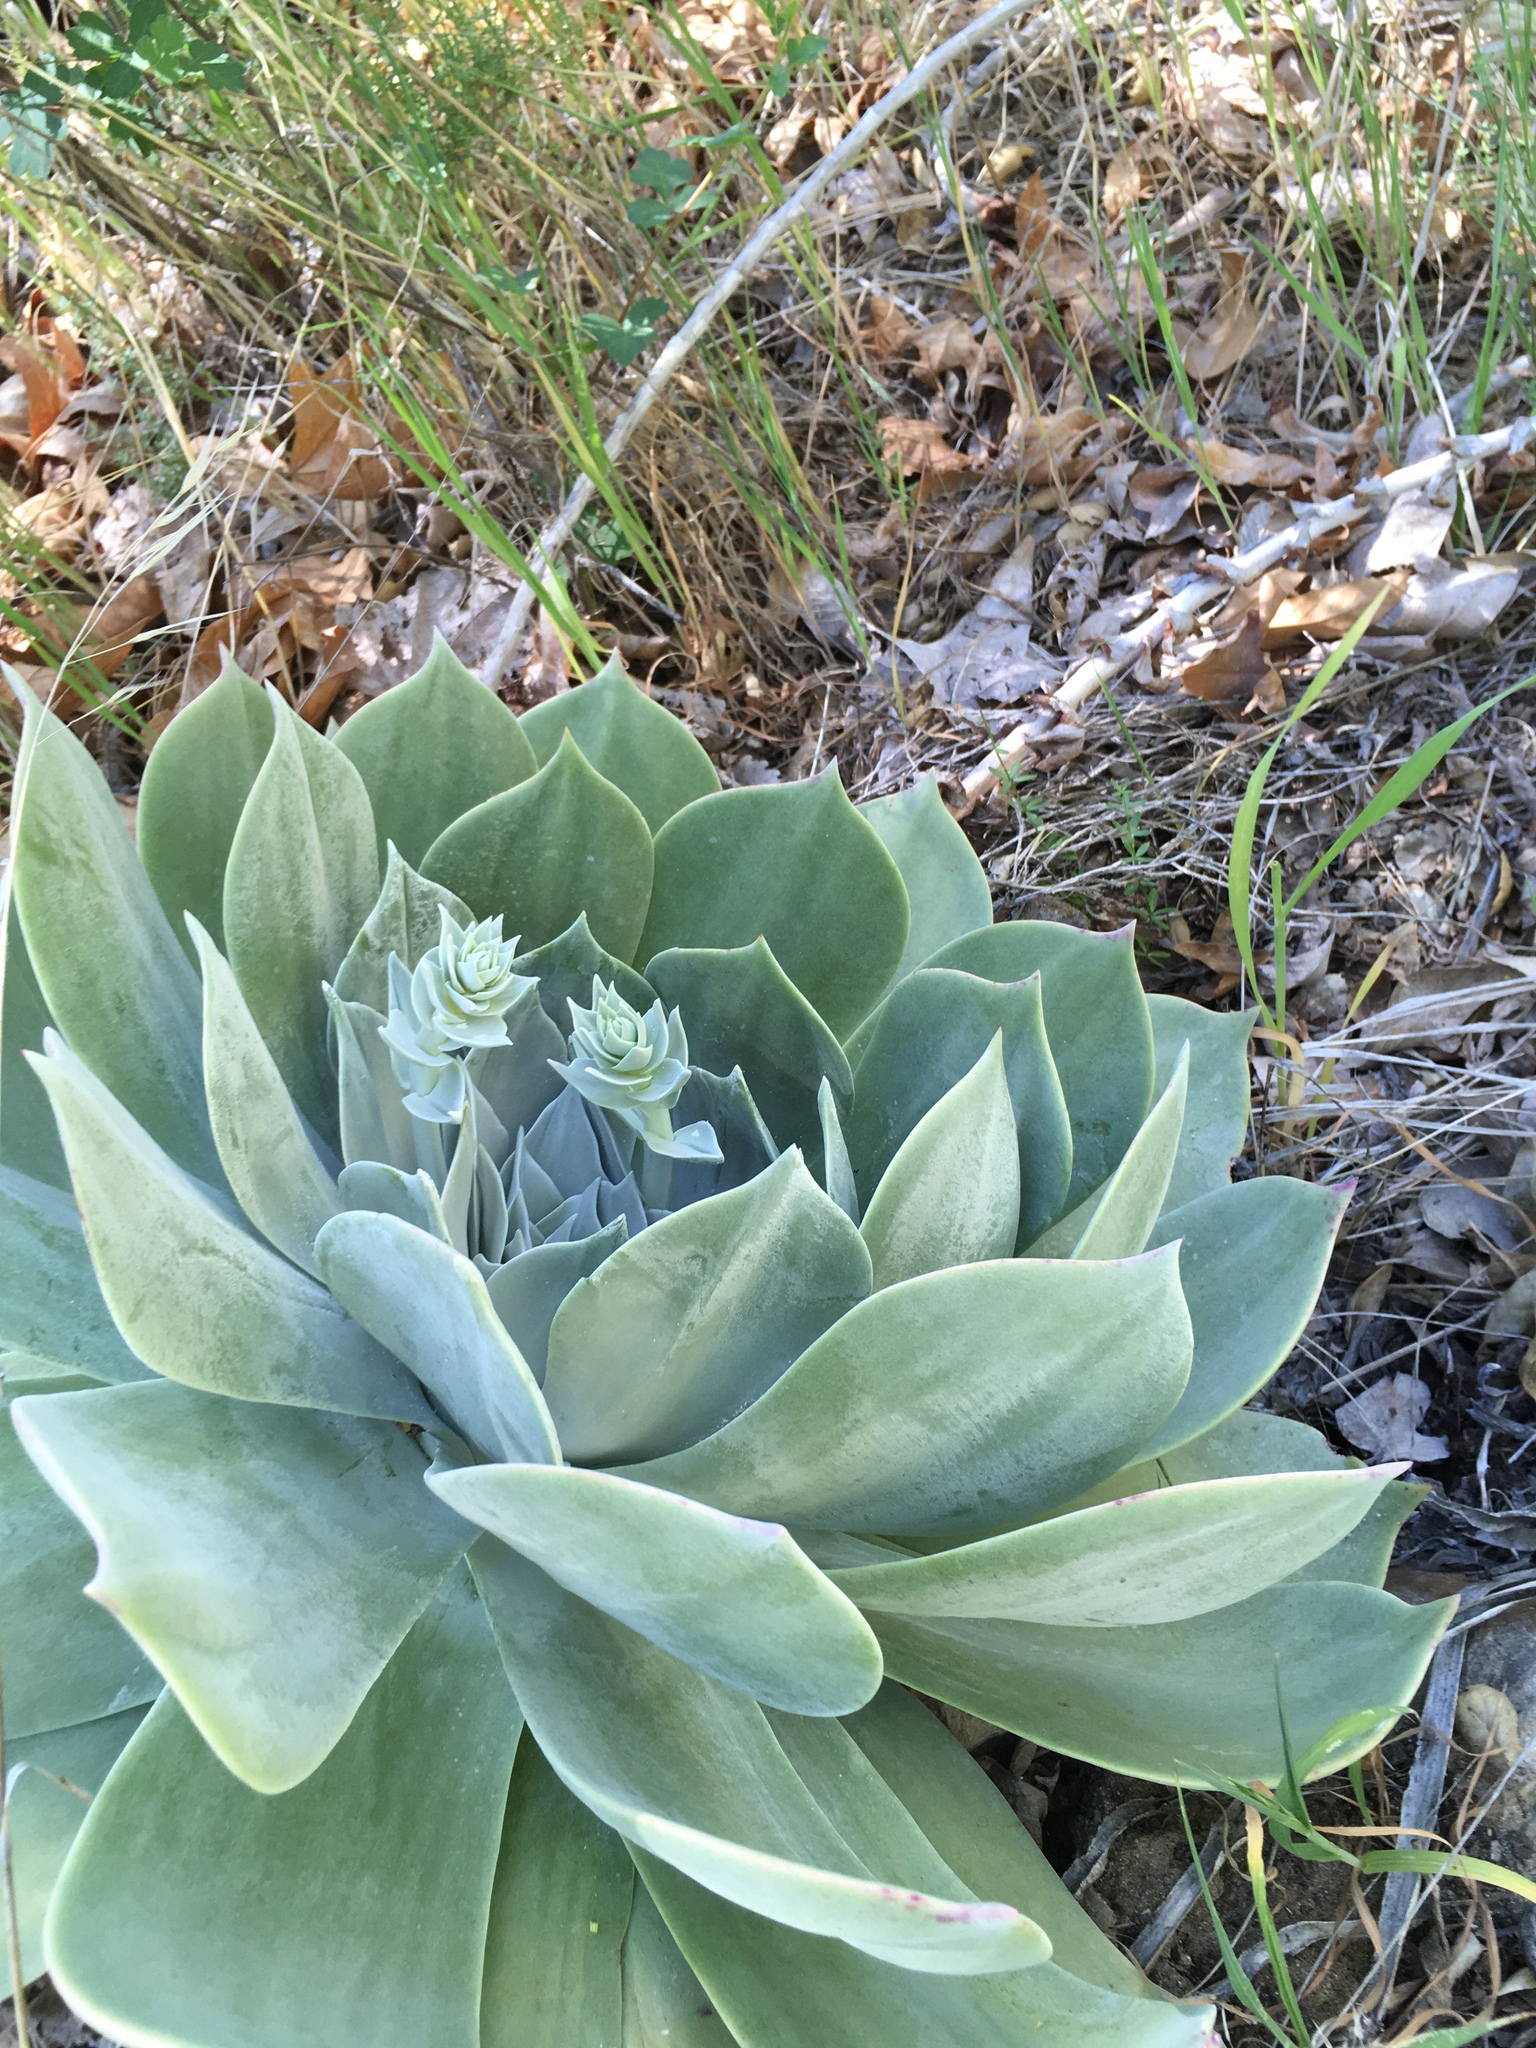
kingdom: Plantae
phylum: Tracheophyta
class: Magnoliopsida
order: Saxifragales
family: Crassulaceae
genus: Dudleya
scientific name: Dudleya pulverulenta
